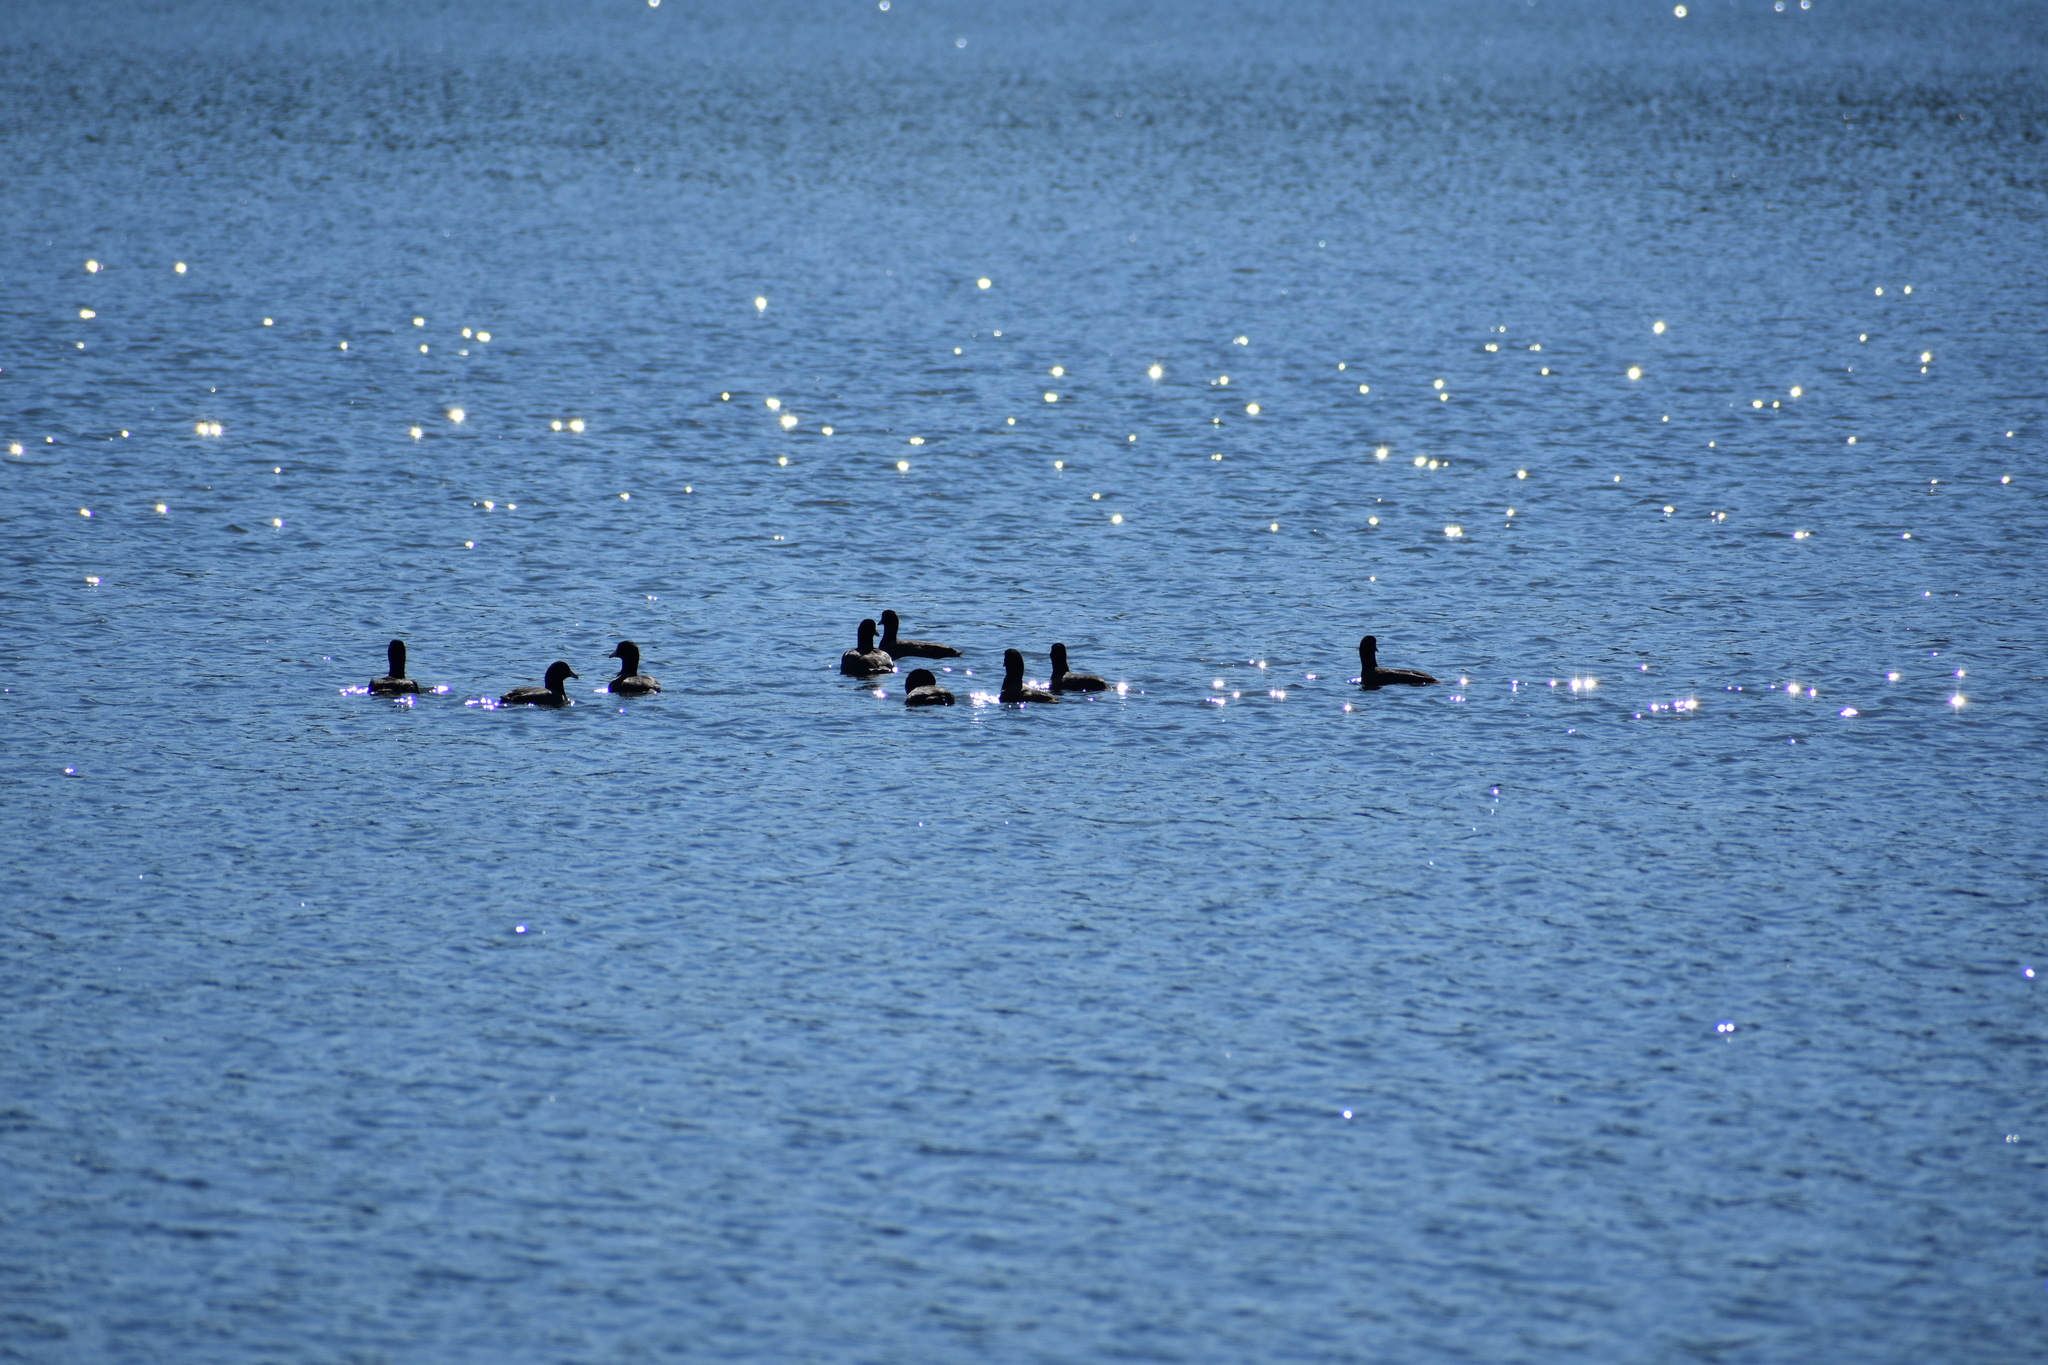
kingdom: Animalia
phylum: Chordata
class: Aves
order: Gruiformes
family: Rallidae
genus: Fulica
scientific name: Fulica americana
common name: American coot
